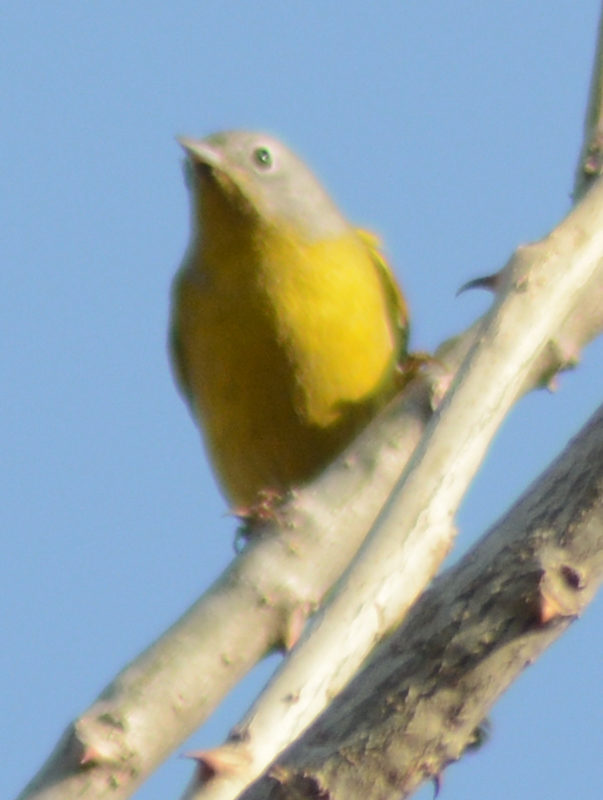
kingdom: Animalia
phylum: Chordata
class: Aves
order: Passeriformes
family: Parulidae
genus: Leiothlypis
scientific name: Leiothlypis ruficapilla
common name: Nashville warbler
